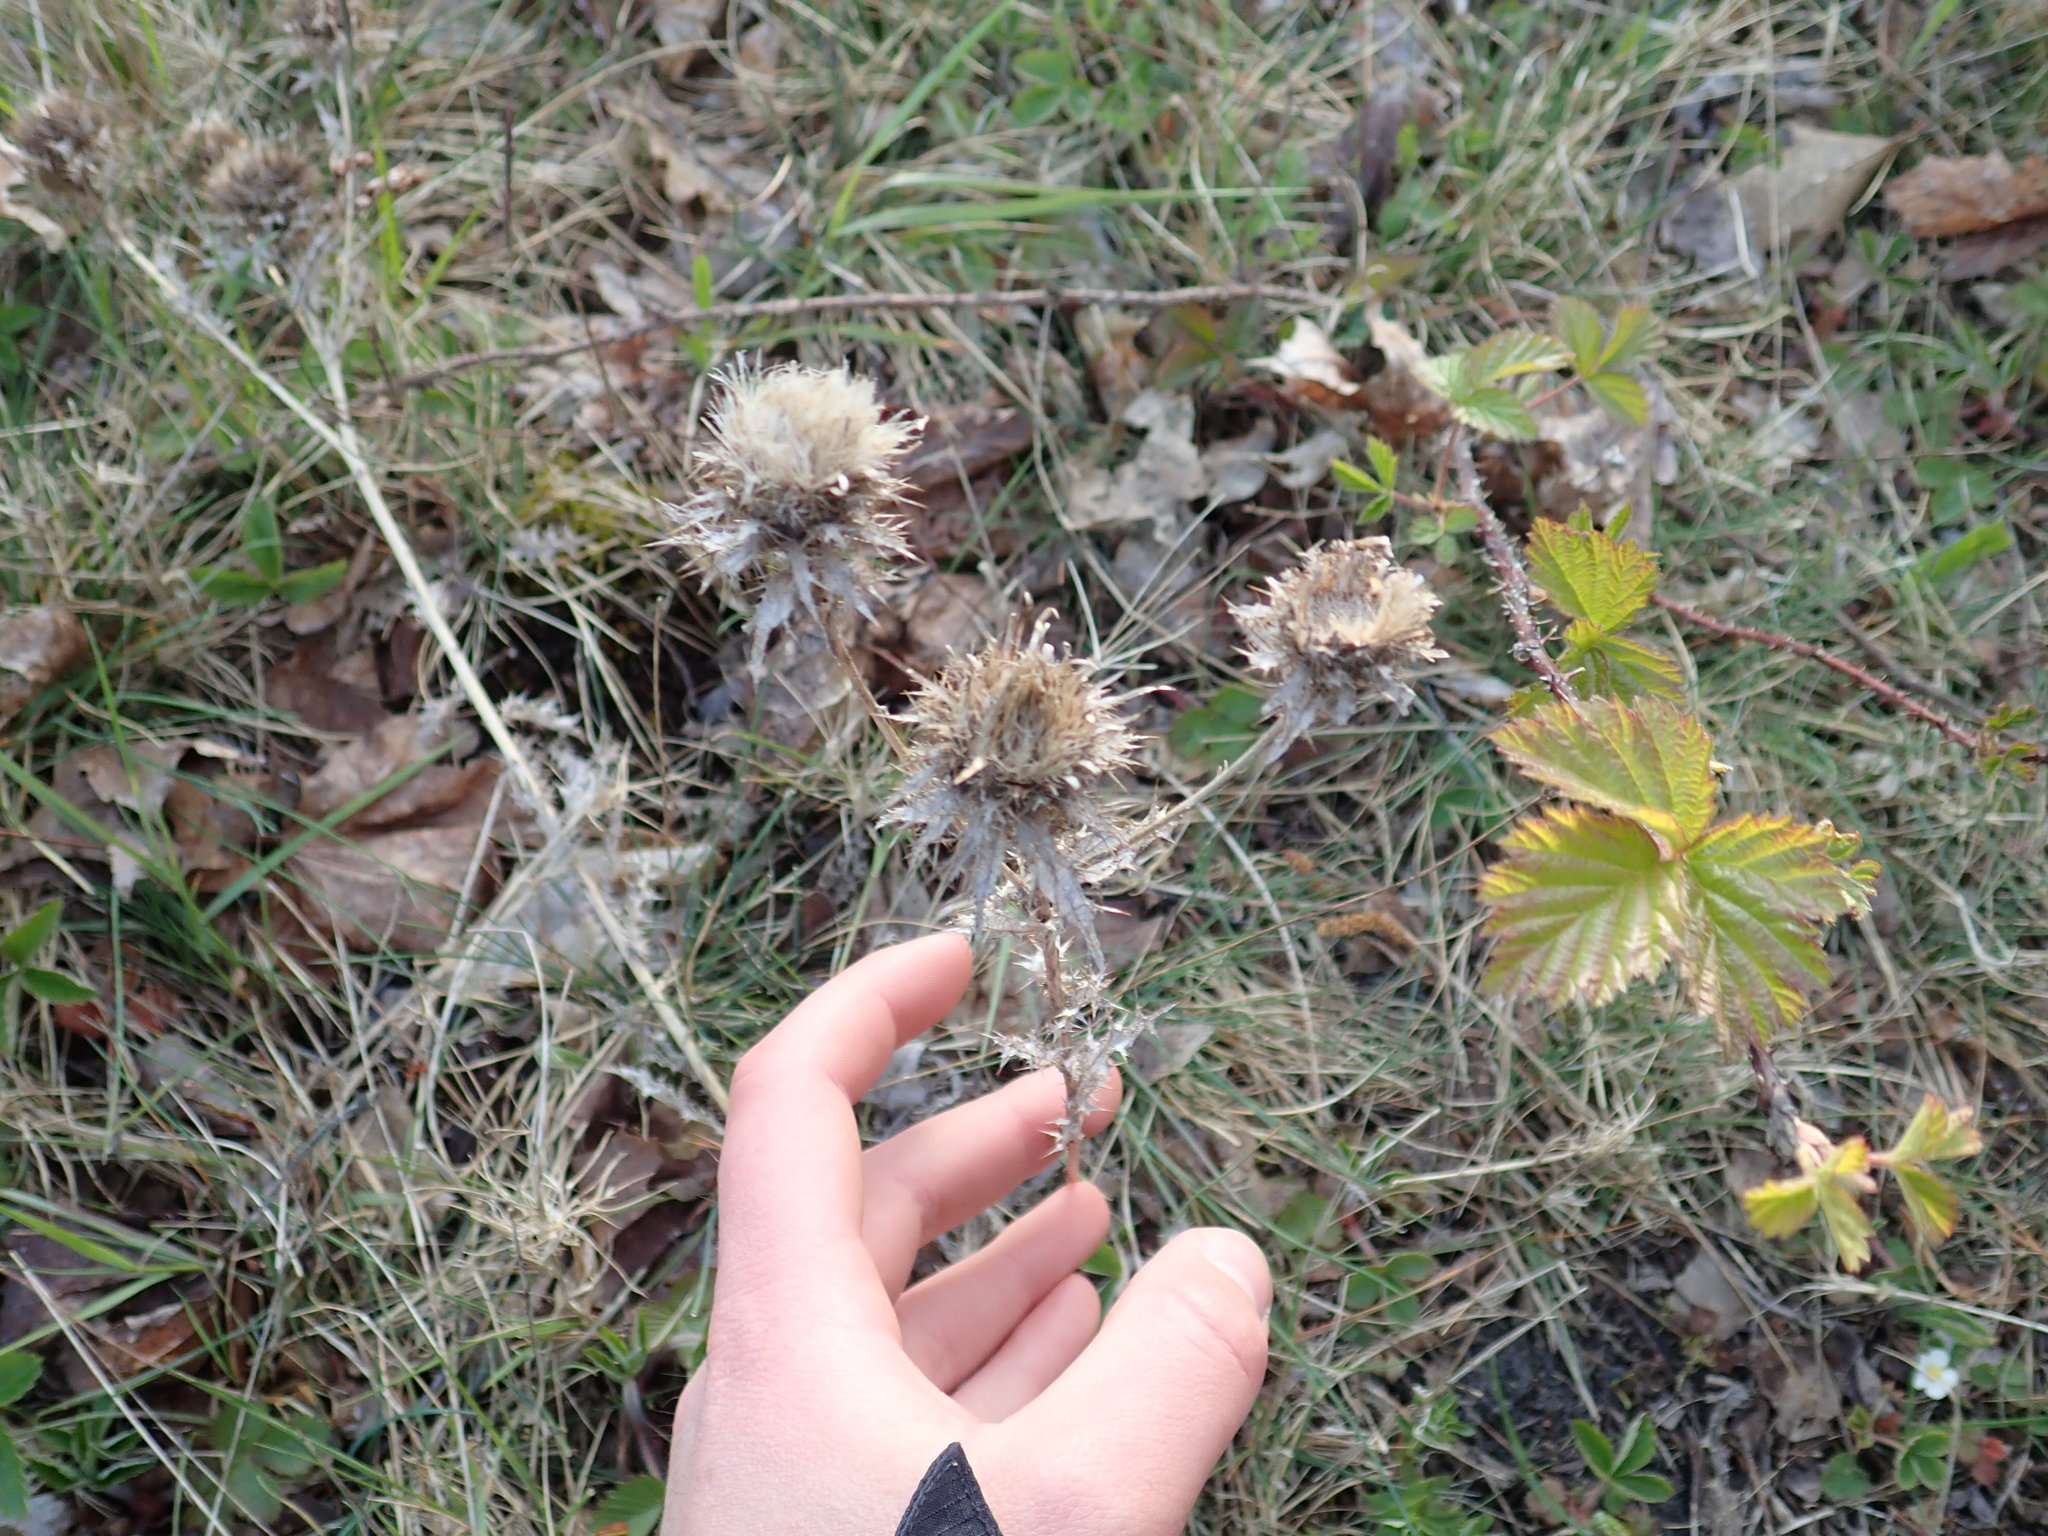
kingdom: Plantae
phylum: Tracheophyta
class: Magnoliopsida
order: Asterales
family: Asteraceae
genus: Carlina
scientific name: Carlina vulgaris
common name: Carline thistle
